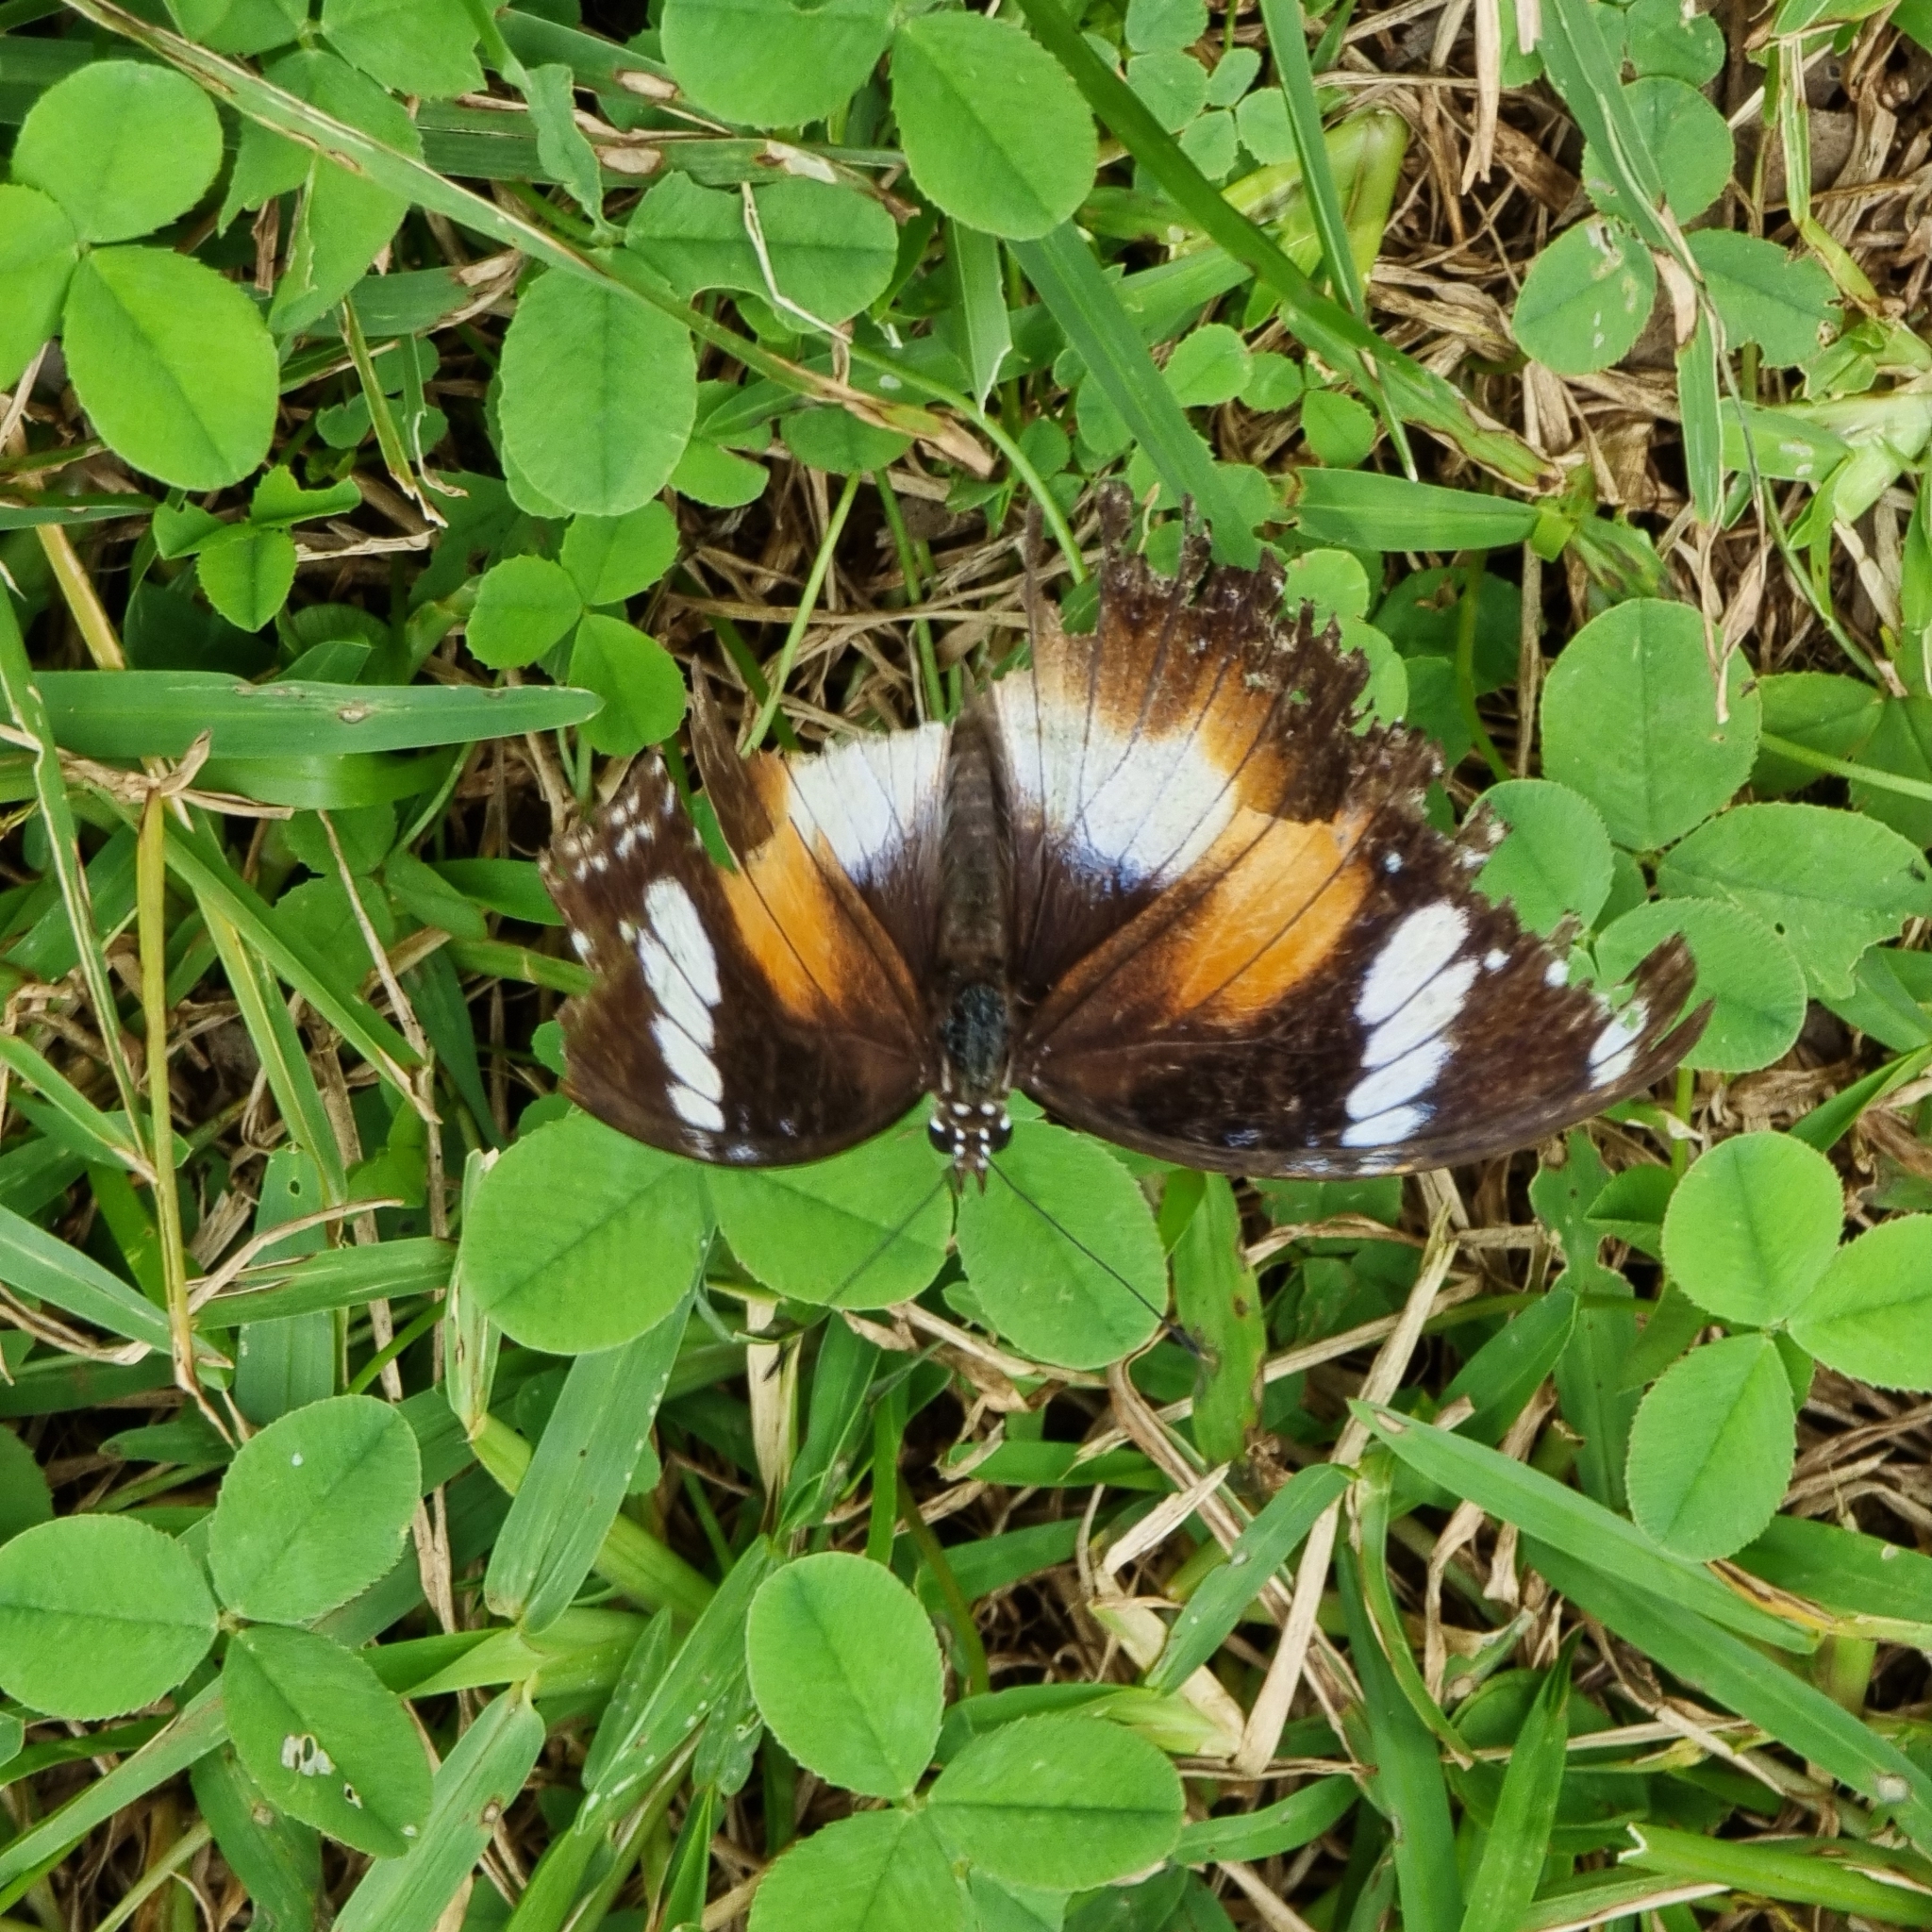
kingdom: Animalia
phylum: Arthropoda
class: Insecta
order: Lepidoptera
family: Nymphalidae
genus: Hypolimnas
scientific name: Hypolimnas bolina
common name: Great eggfly
